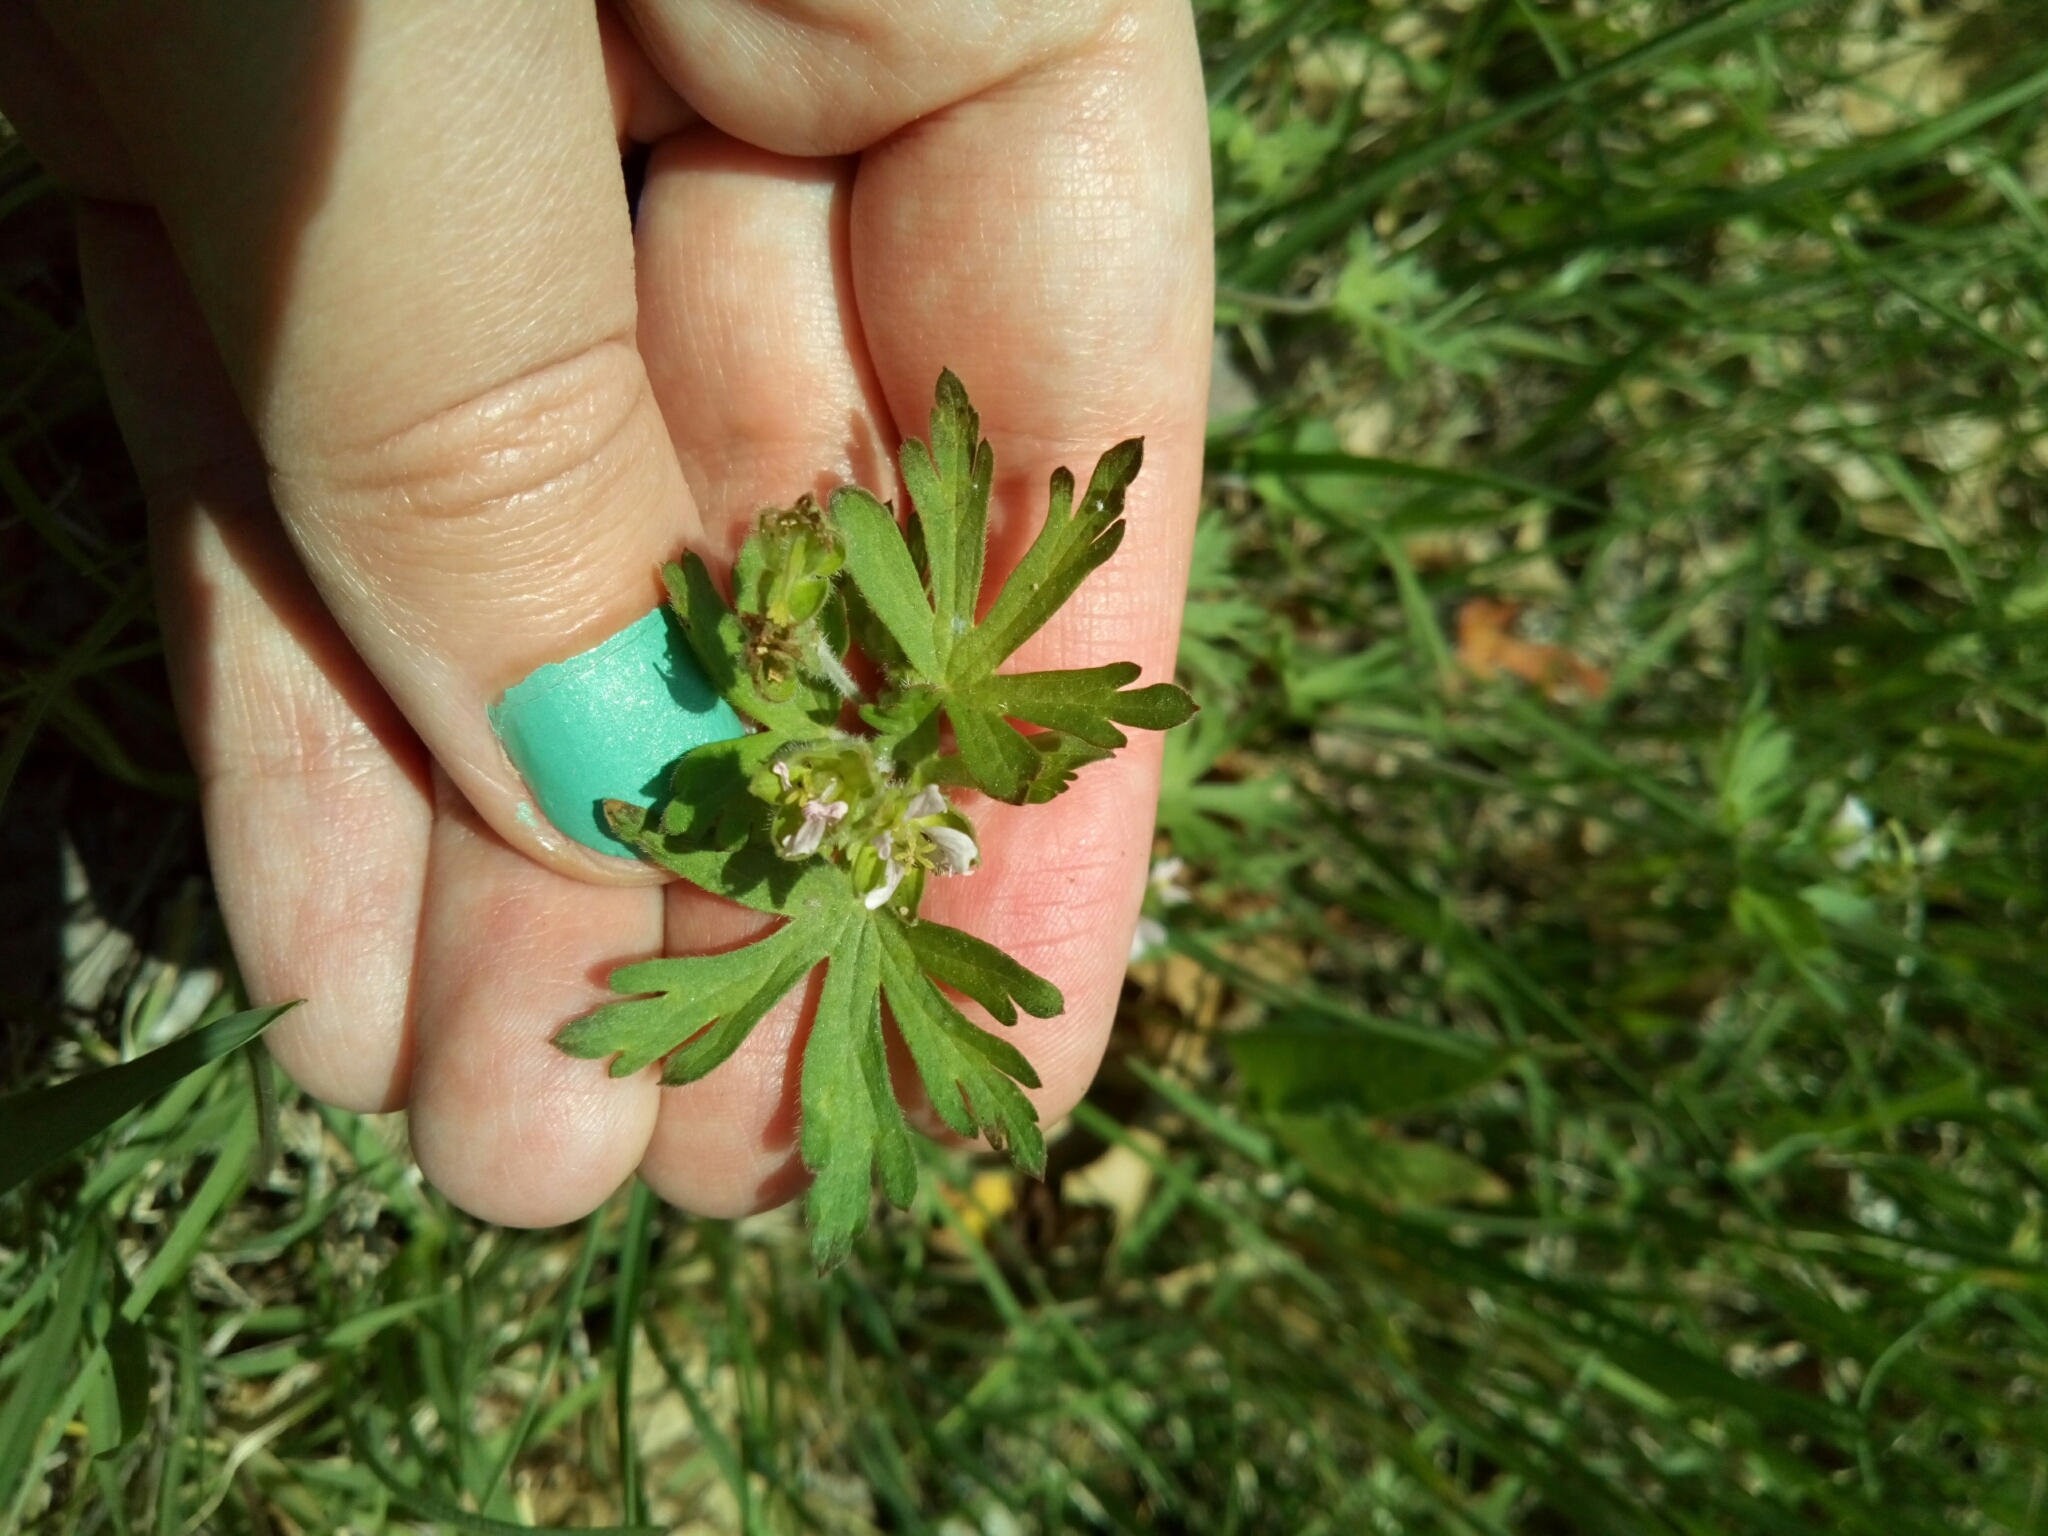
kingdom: Plantae
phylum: Tracheophyta
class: Magnoliopsida
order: Geraniales
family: Geraniaceae
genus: Geranium
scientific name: Geranium carolinianum
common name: Carolina crane's-bill
